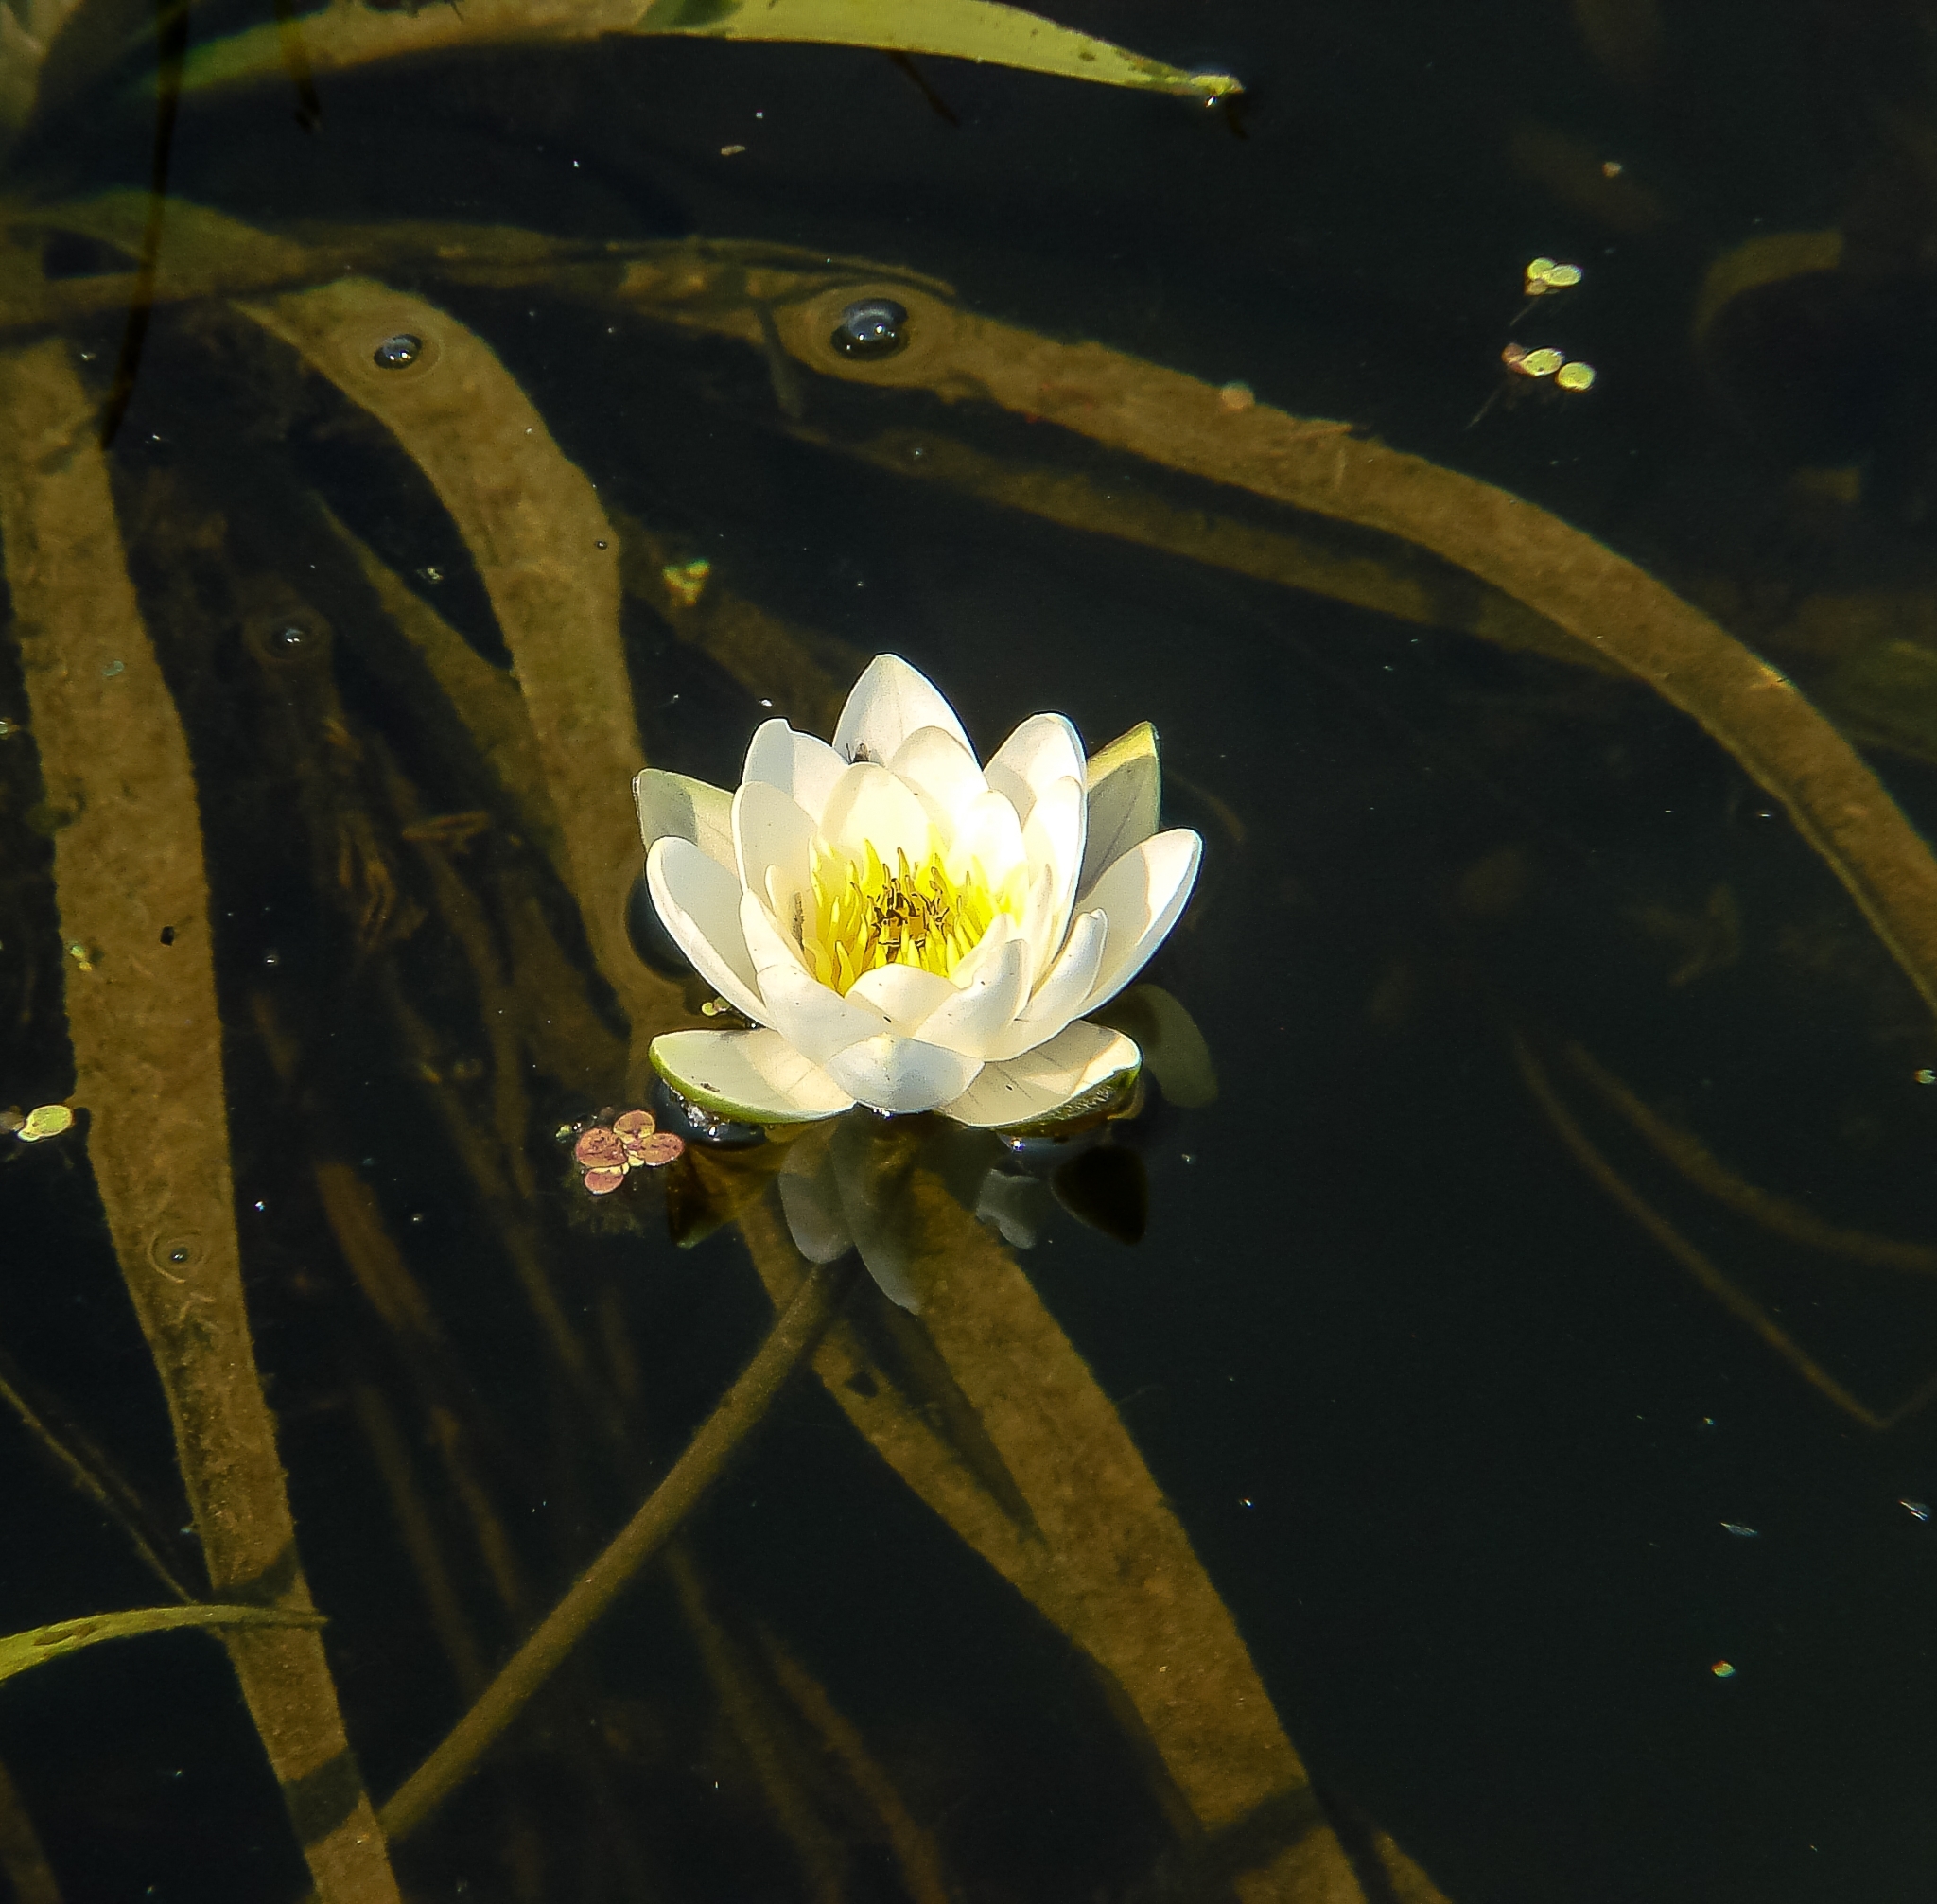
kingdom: Plantae
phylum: Tracheophyta
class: Magnoliopsida
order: Nymphaeales
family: Nymphaeaceae
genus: Nymphaea
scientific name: Nymphaea candida
